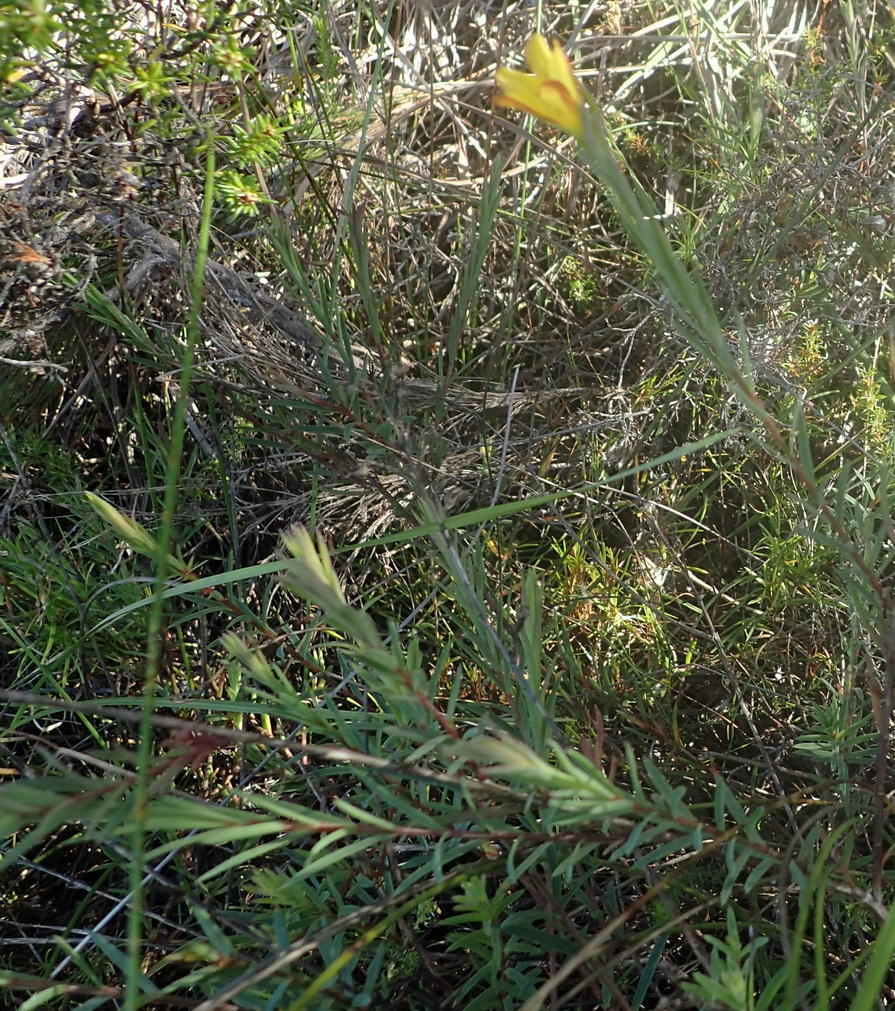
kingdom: Plantae
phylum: Tracheophyta
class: Magnoliopsida
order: Malpighiales
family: Linaceae
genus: Linum
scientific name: Linum africanum
